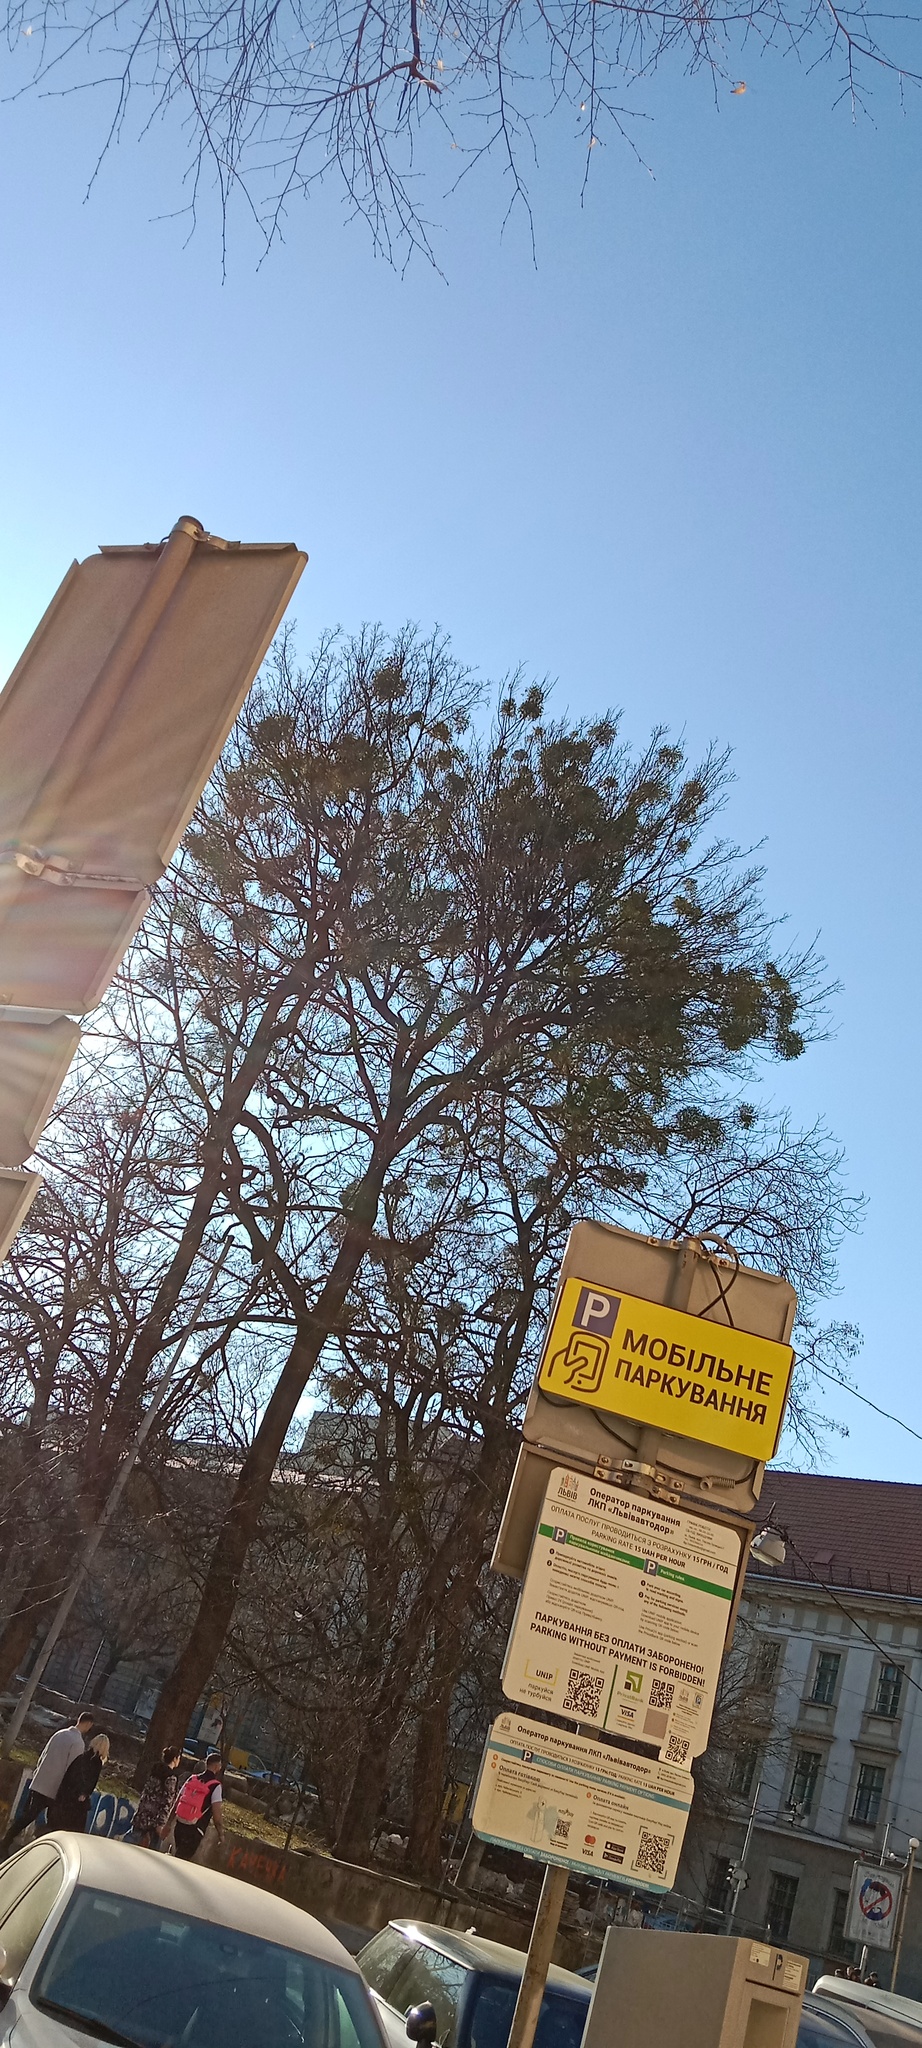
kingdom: Plantae
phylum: Tracheophyta
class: Magnoliopsida
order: Santalales
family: Viscaceae
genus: Viscum
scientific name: Viscum album
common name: Mistletoe
